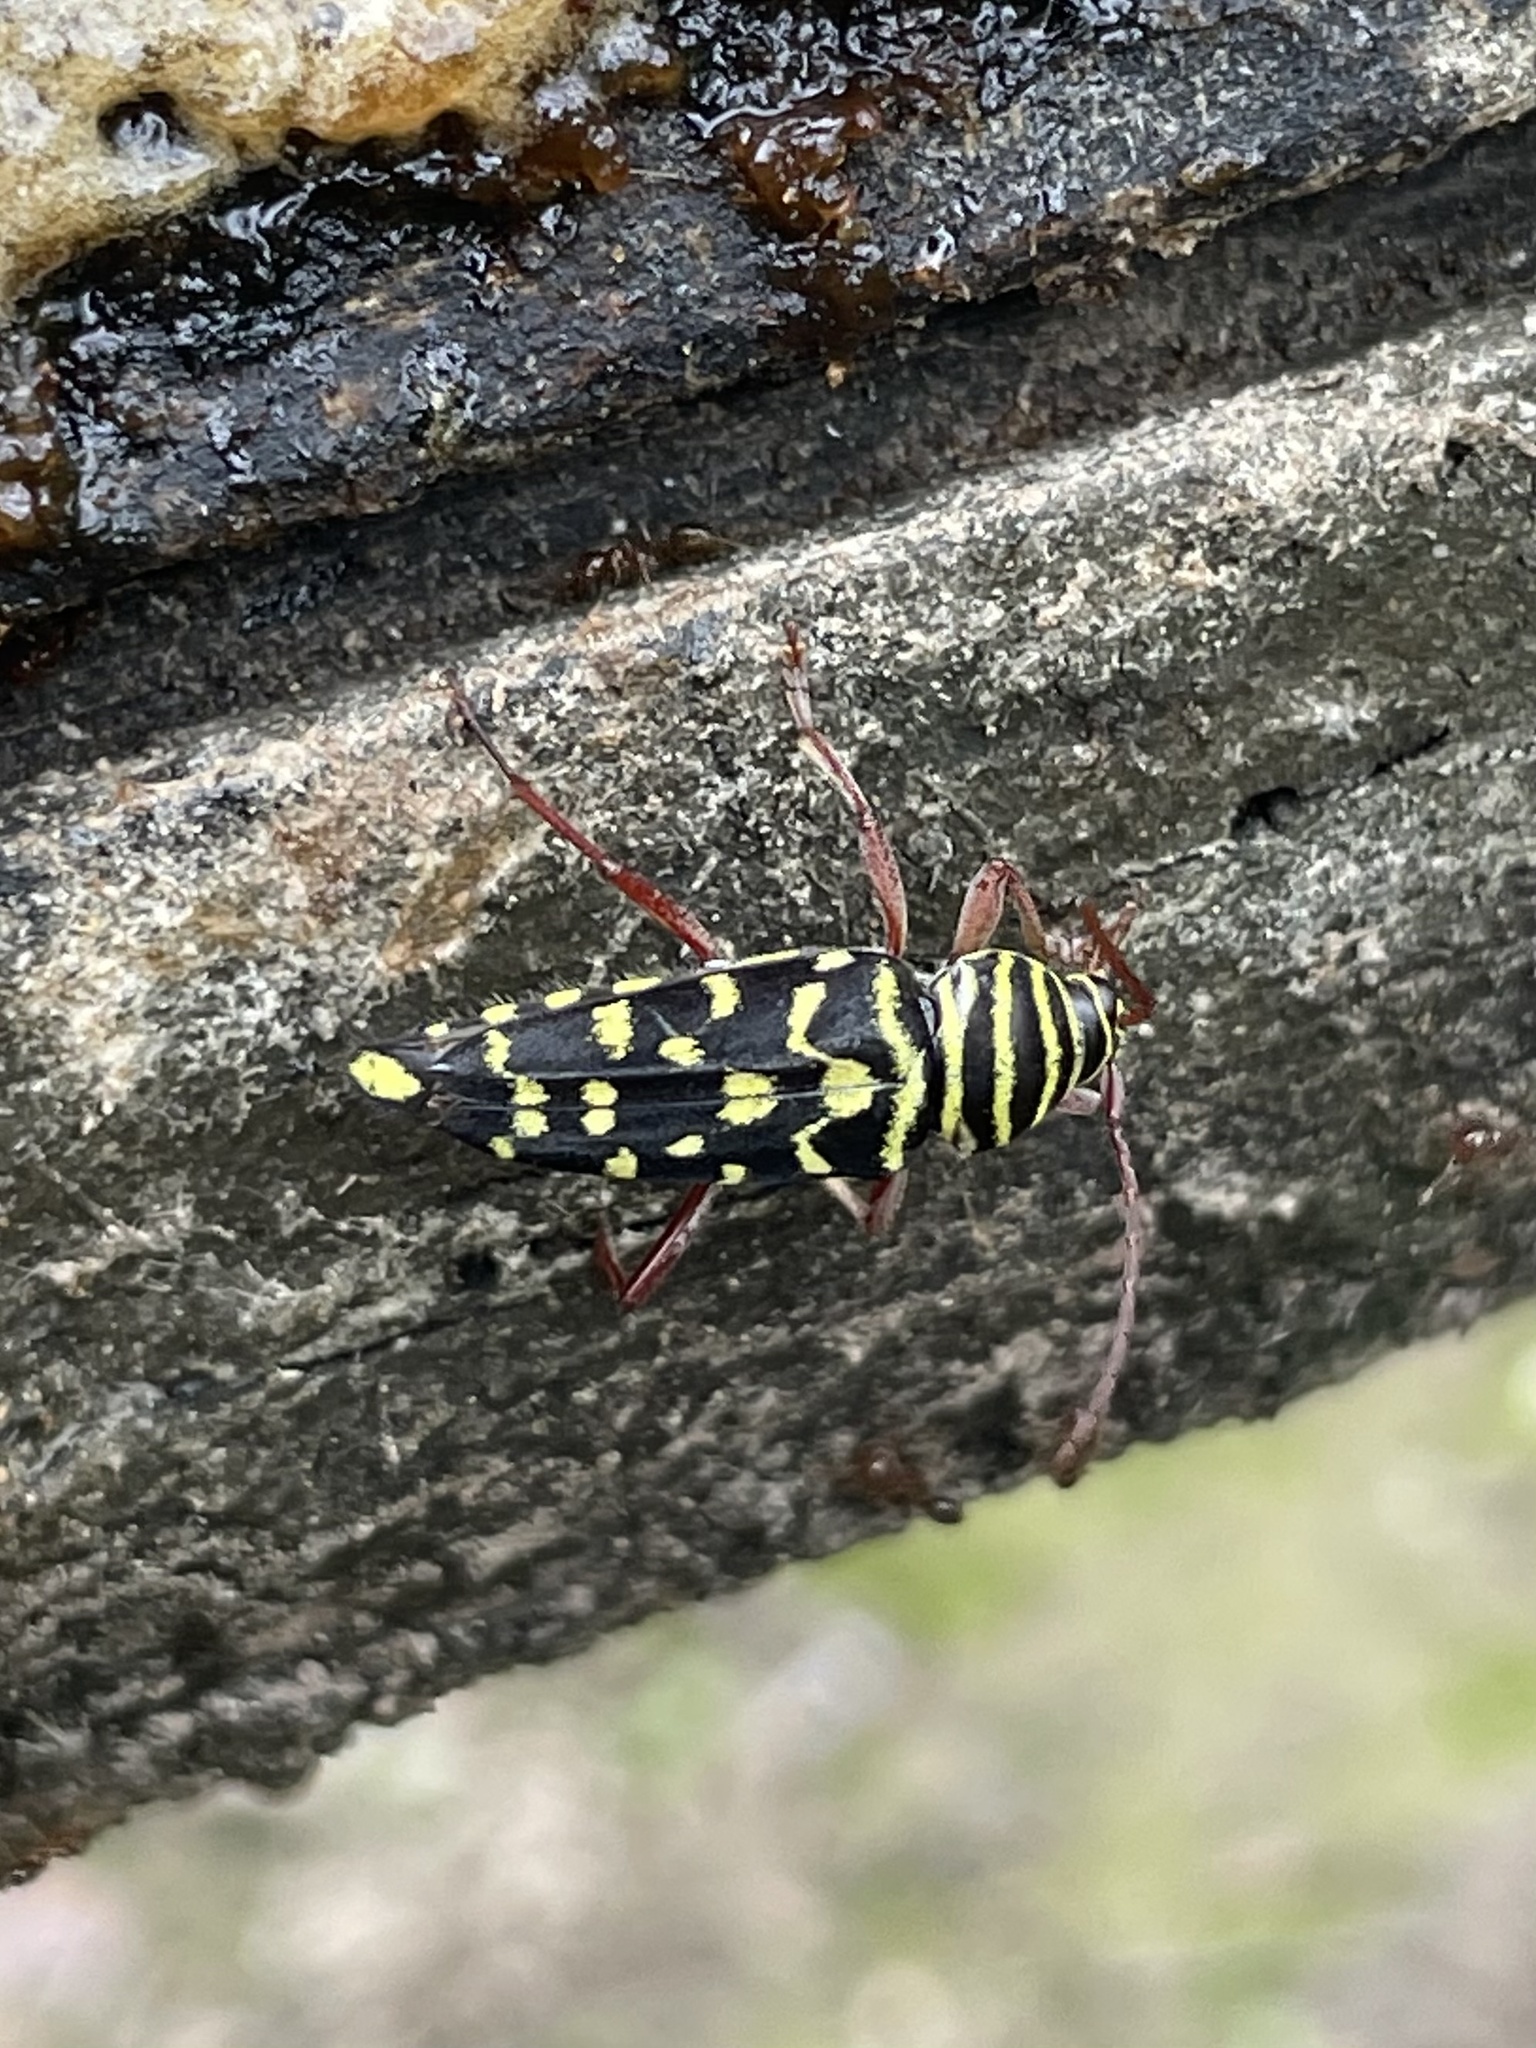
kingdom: Animalia
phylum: Arthropoda
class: Insecta
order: Coleoptera
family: Cerambycidae
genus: Placosternus
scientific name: Placosternus difficilis
